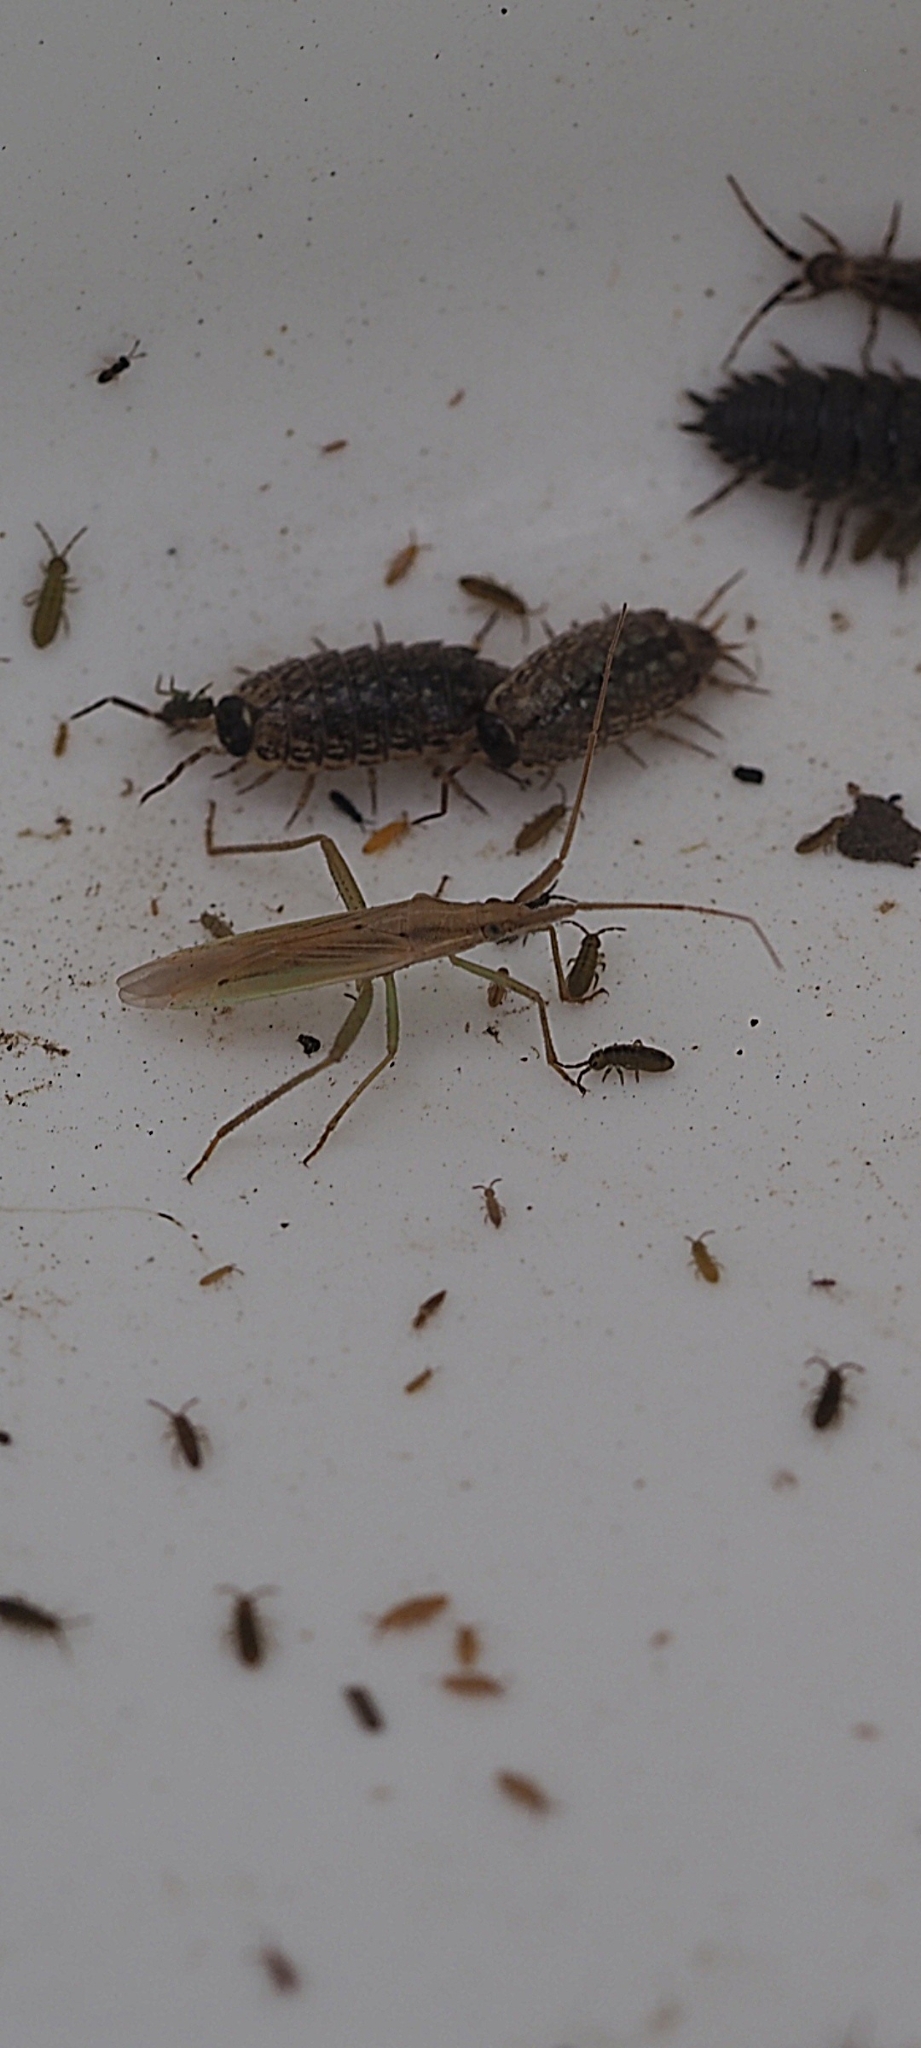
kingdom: Animalia
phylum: Arthropoda
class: Insecta
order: Hemiptera
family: Miridae
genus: Stenodema
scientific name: Stenodema laevigata
